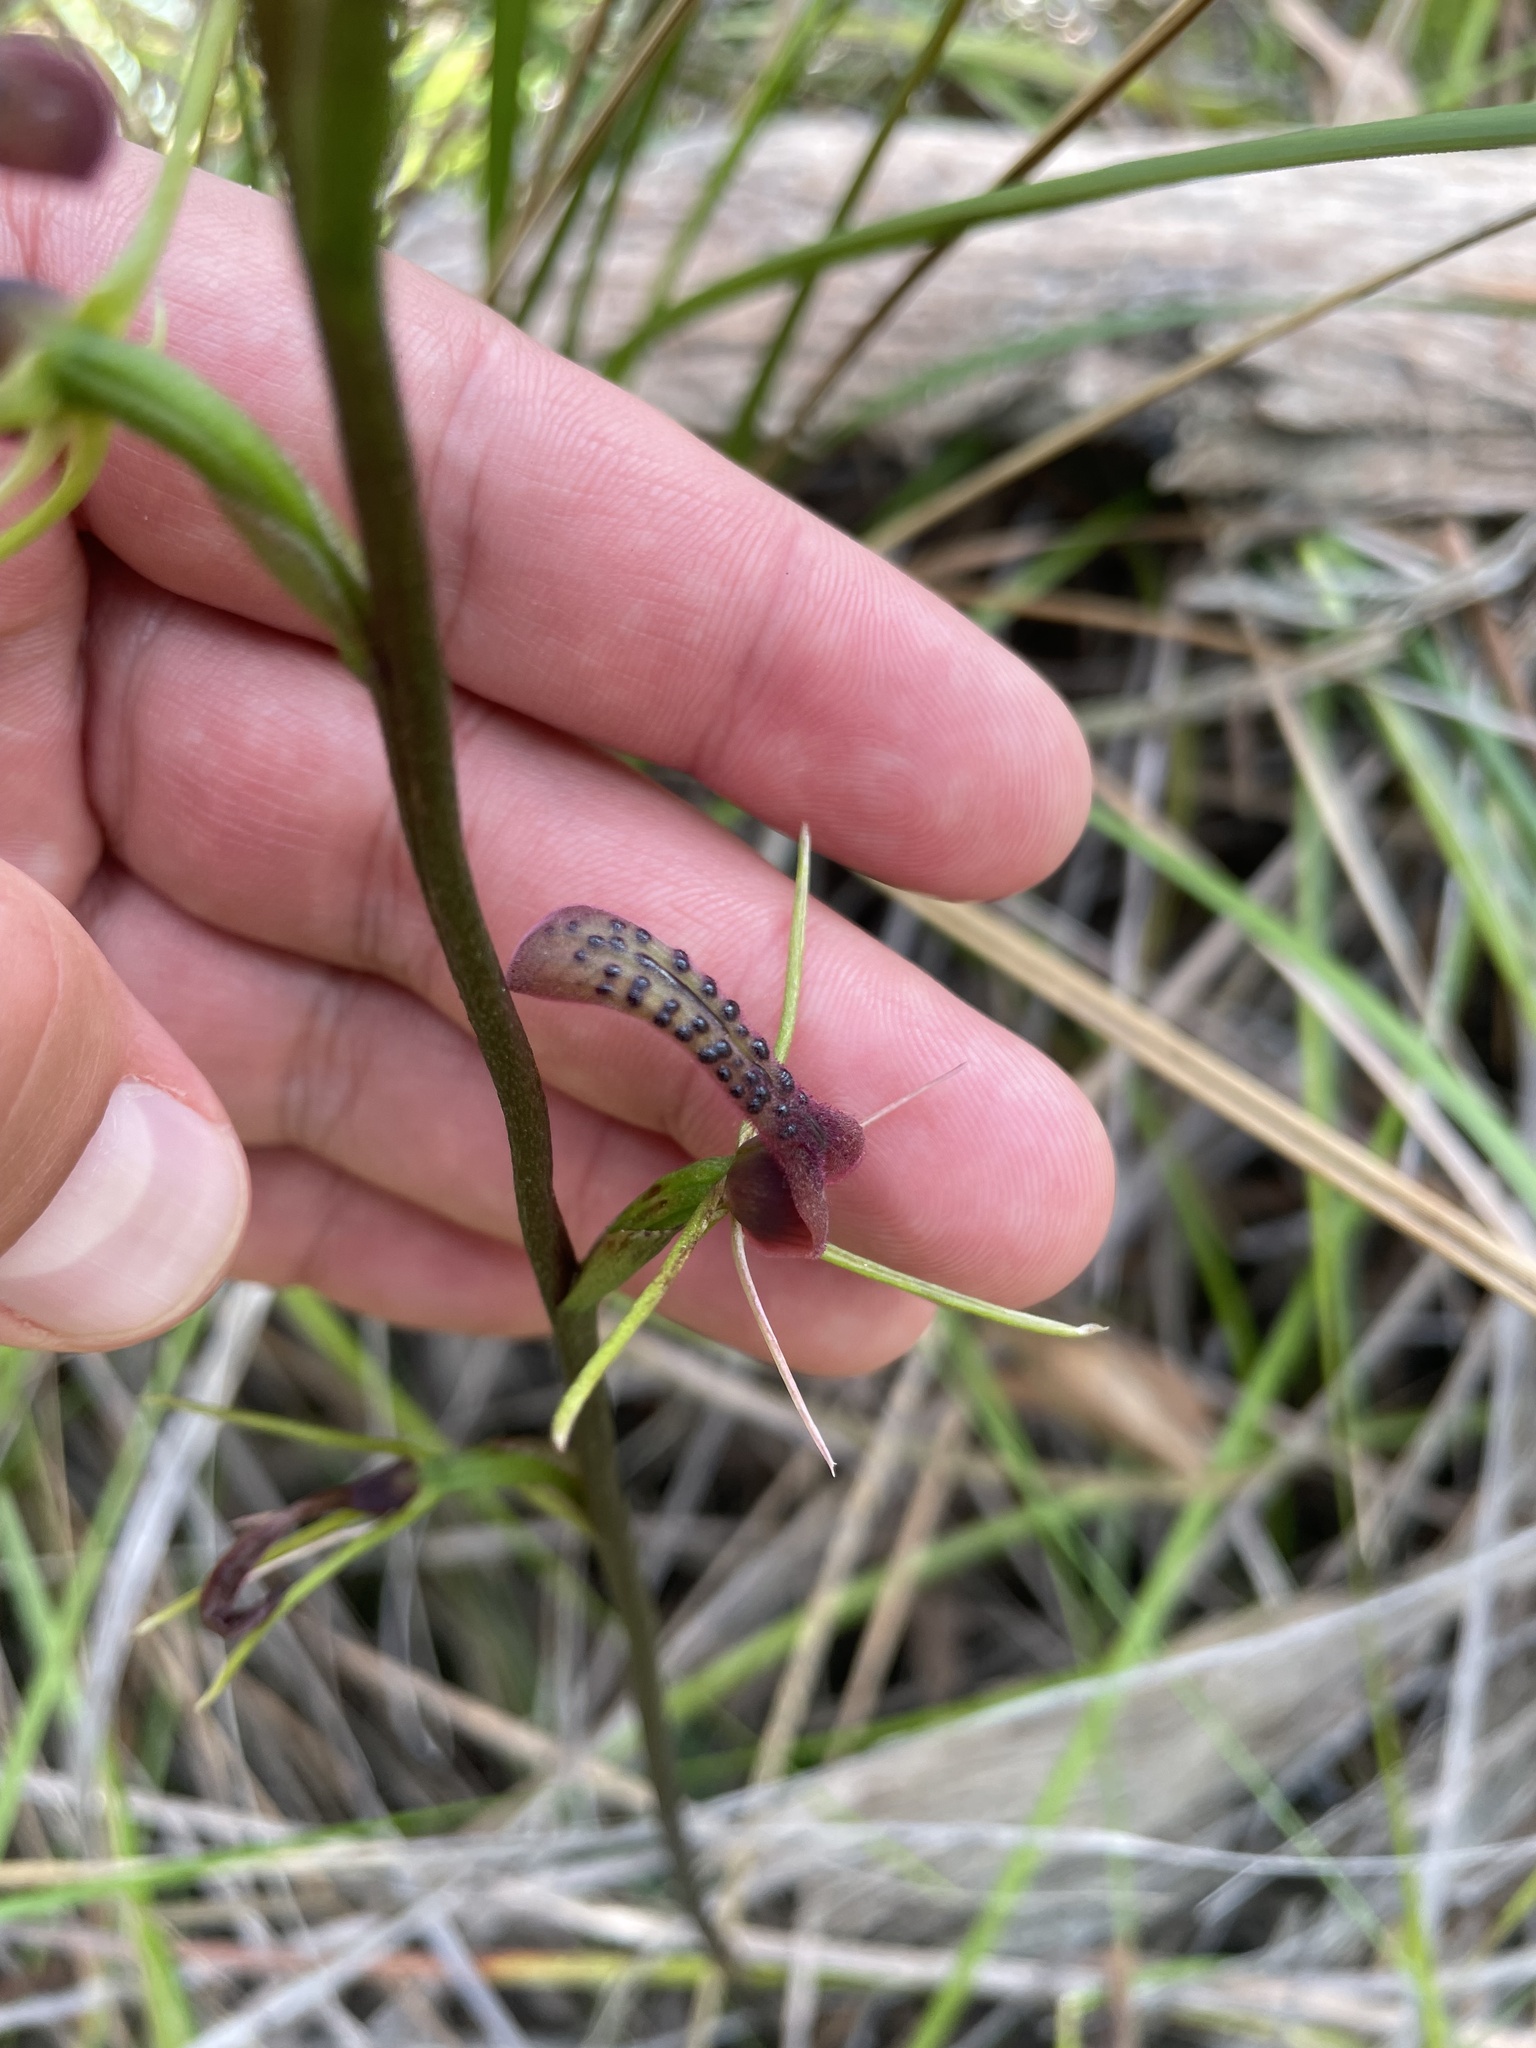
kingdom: Plantae
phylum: Tracheophyta
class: Liliopsida
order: Asparagales
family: Orchidaceae
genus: Cryptostylis
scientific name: Cryptostylis leptochila
